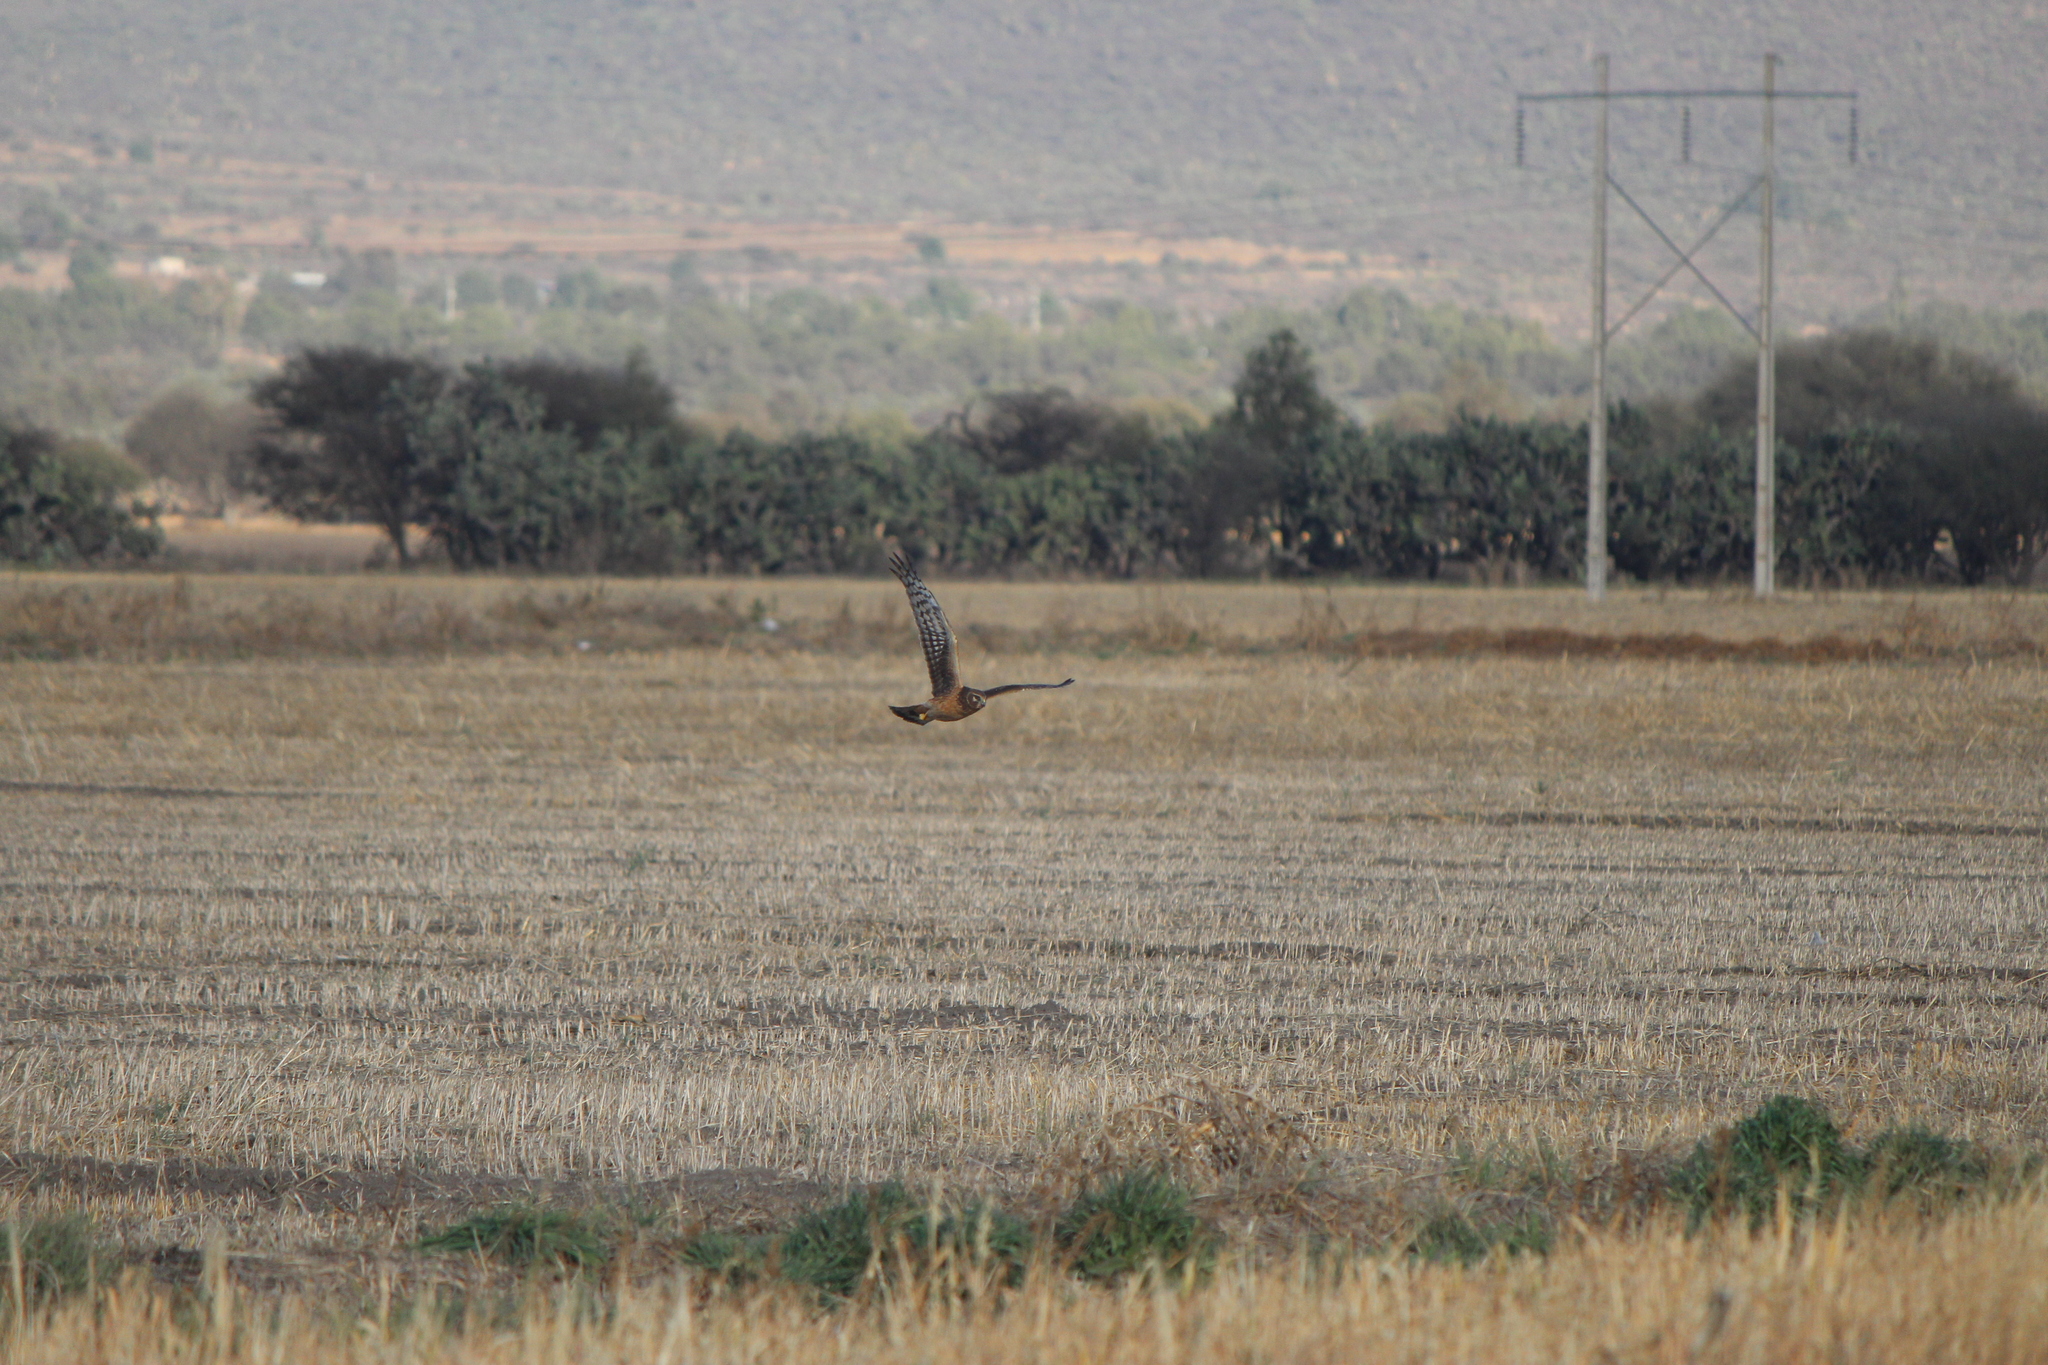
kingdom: Animalia
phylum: Chordata
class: Aves
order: Accipitriformes
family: Accipitridae
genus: Circus
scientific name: Circus cyaneus
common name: Hen harrier
